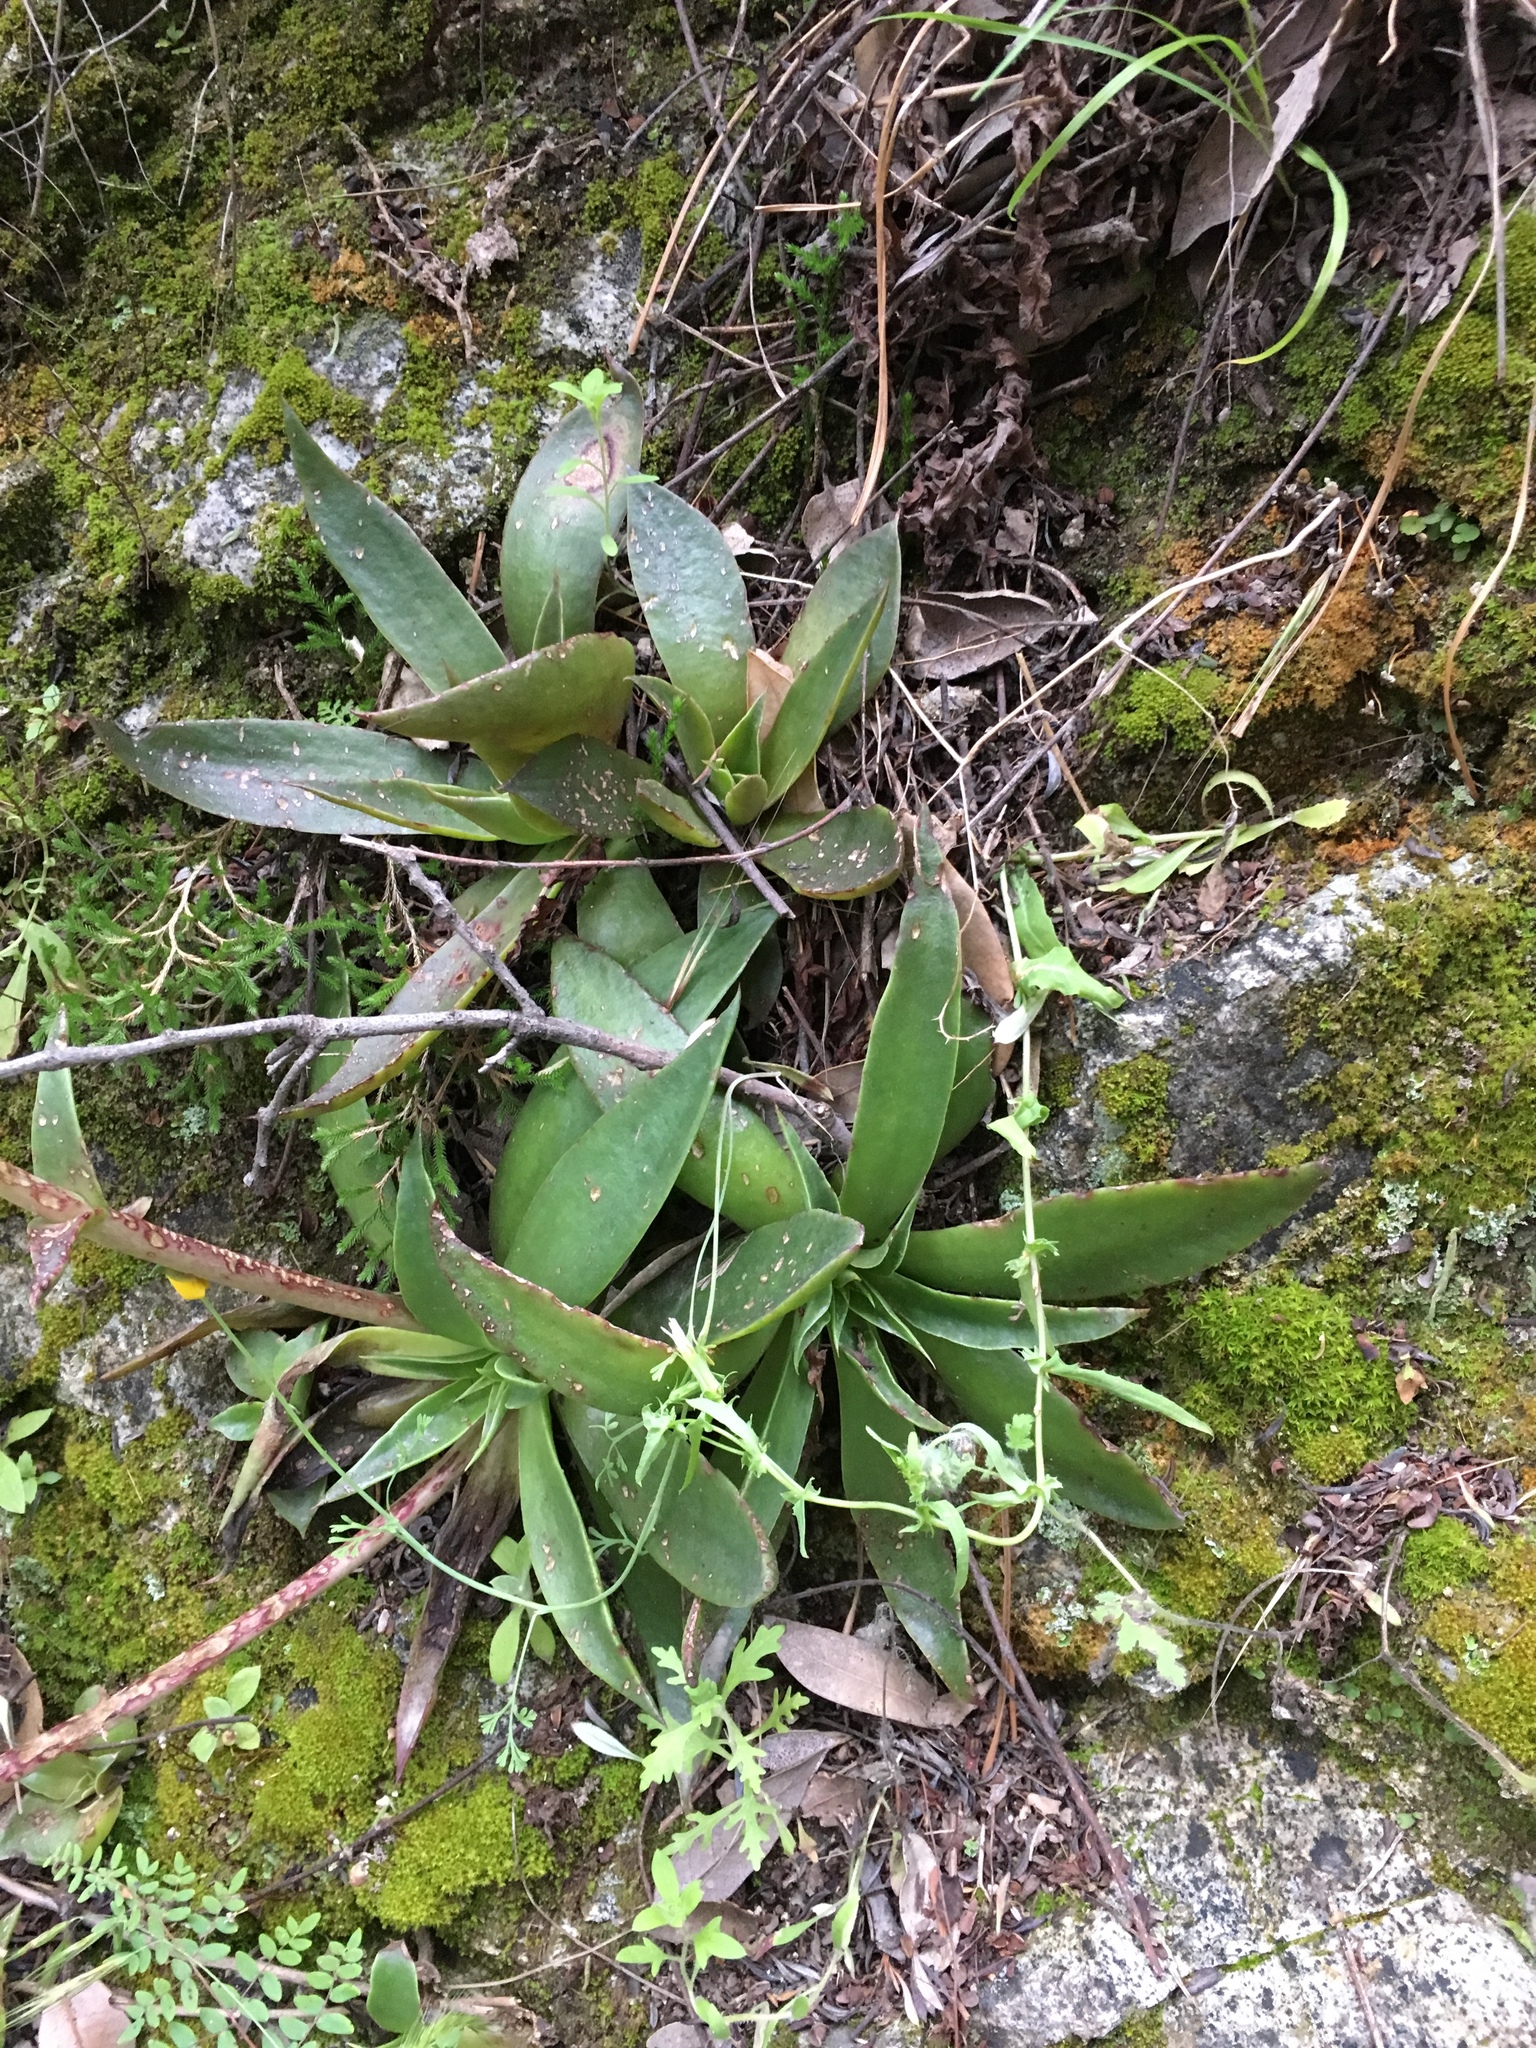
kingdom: Plantae
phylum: Tracheophyta
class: Magnoliopsida
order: Saxifragales
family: Crassulaceae
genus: Dudleya
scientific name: Dudleya lanceolata
